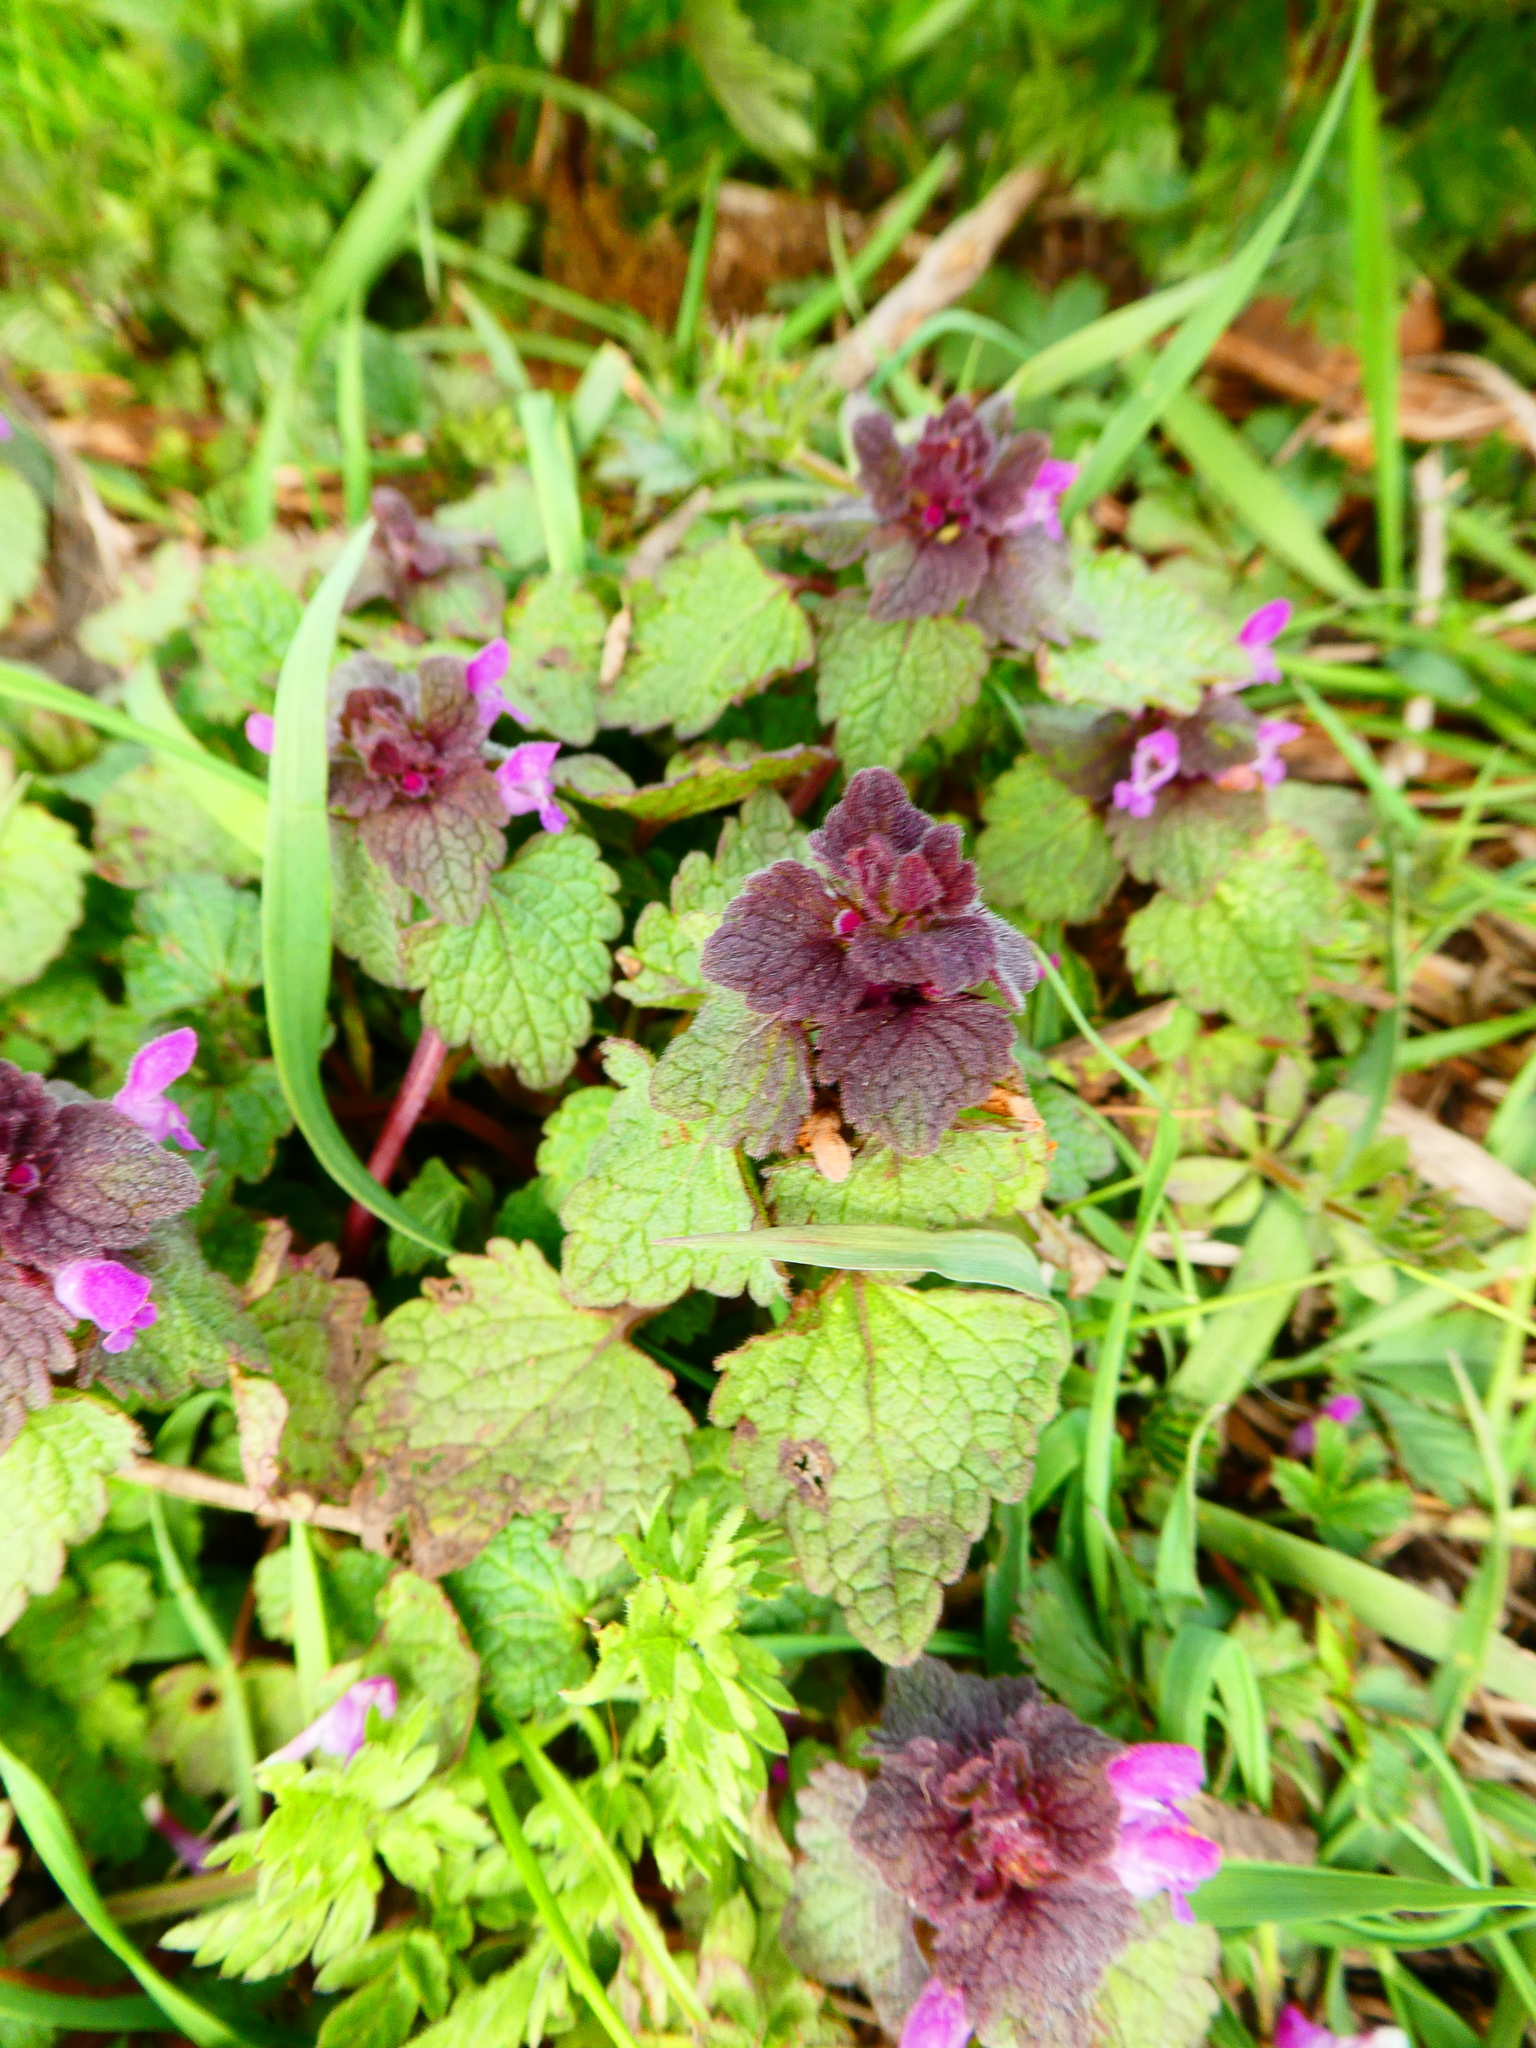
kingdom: Plantae
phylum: Tracheophyta
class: Magnoliopsida
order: Lamiales
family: Lamiaceae
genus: Lamium
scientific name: Lamium purpureum
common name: Red dead-nettle
